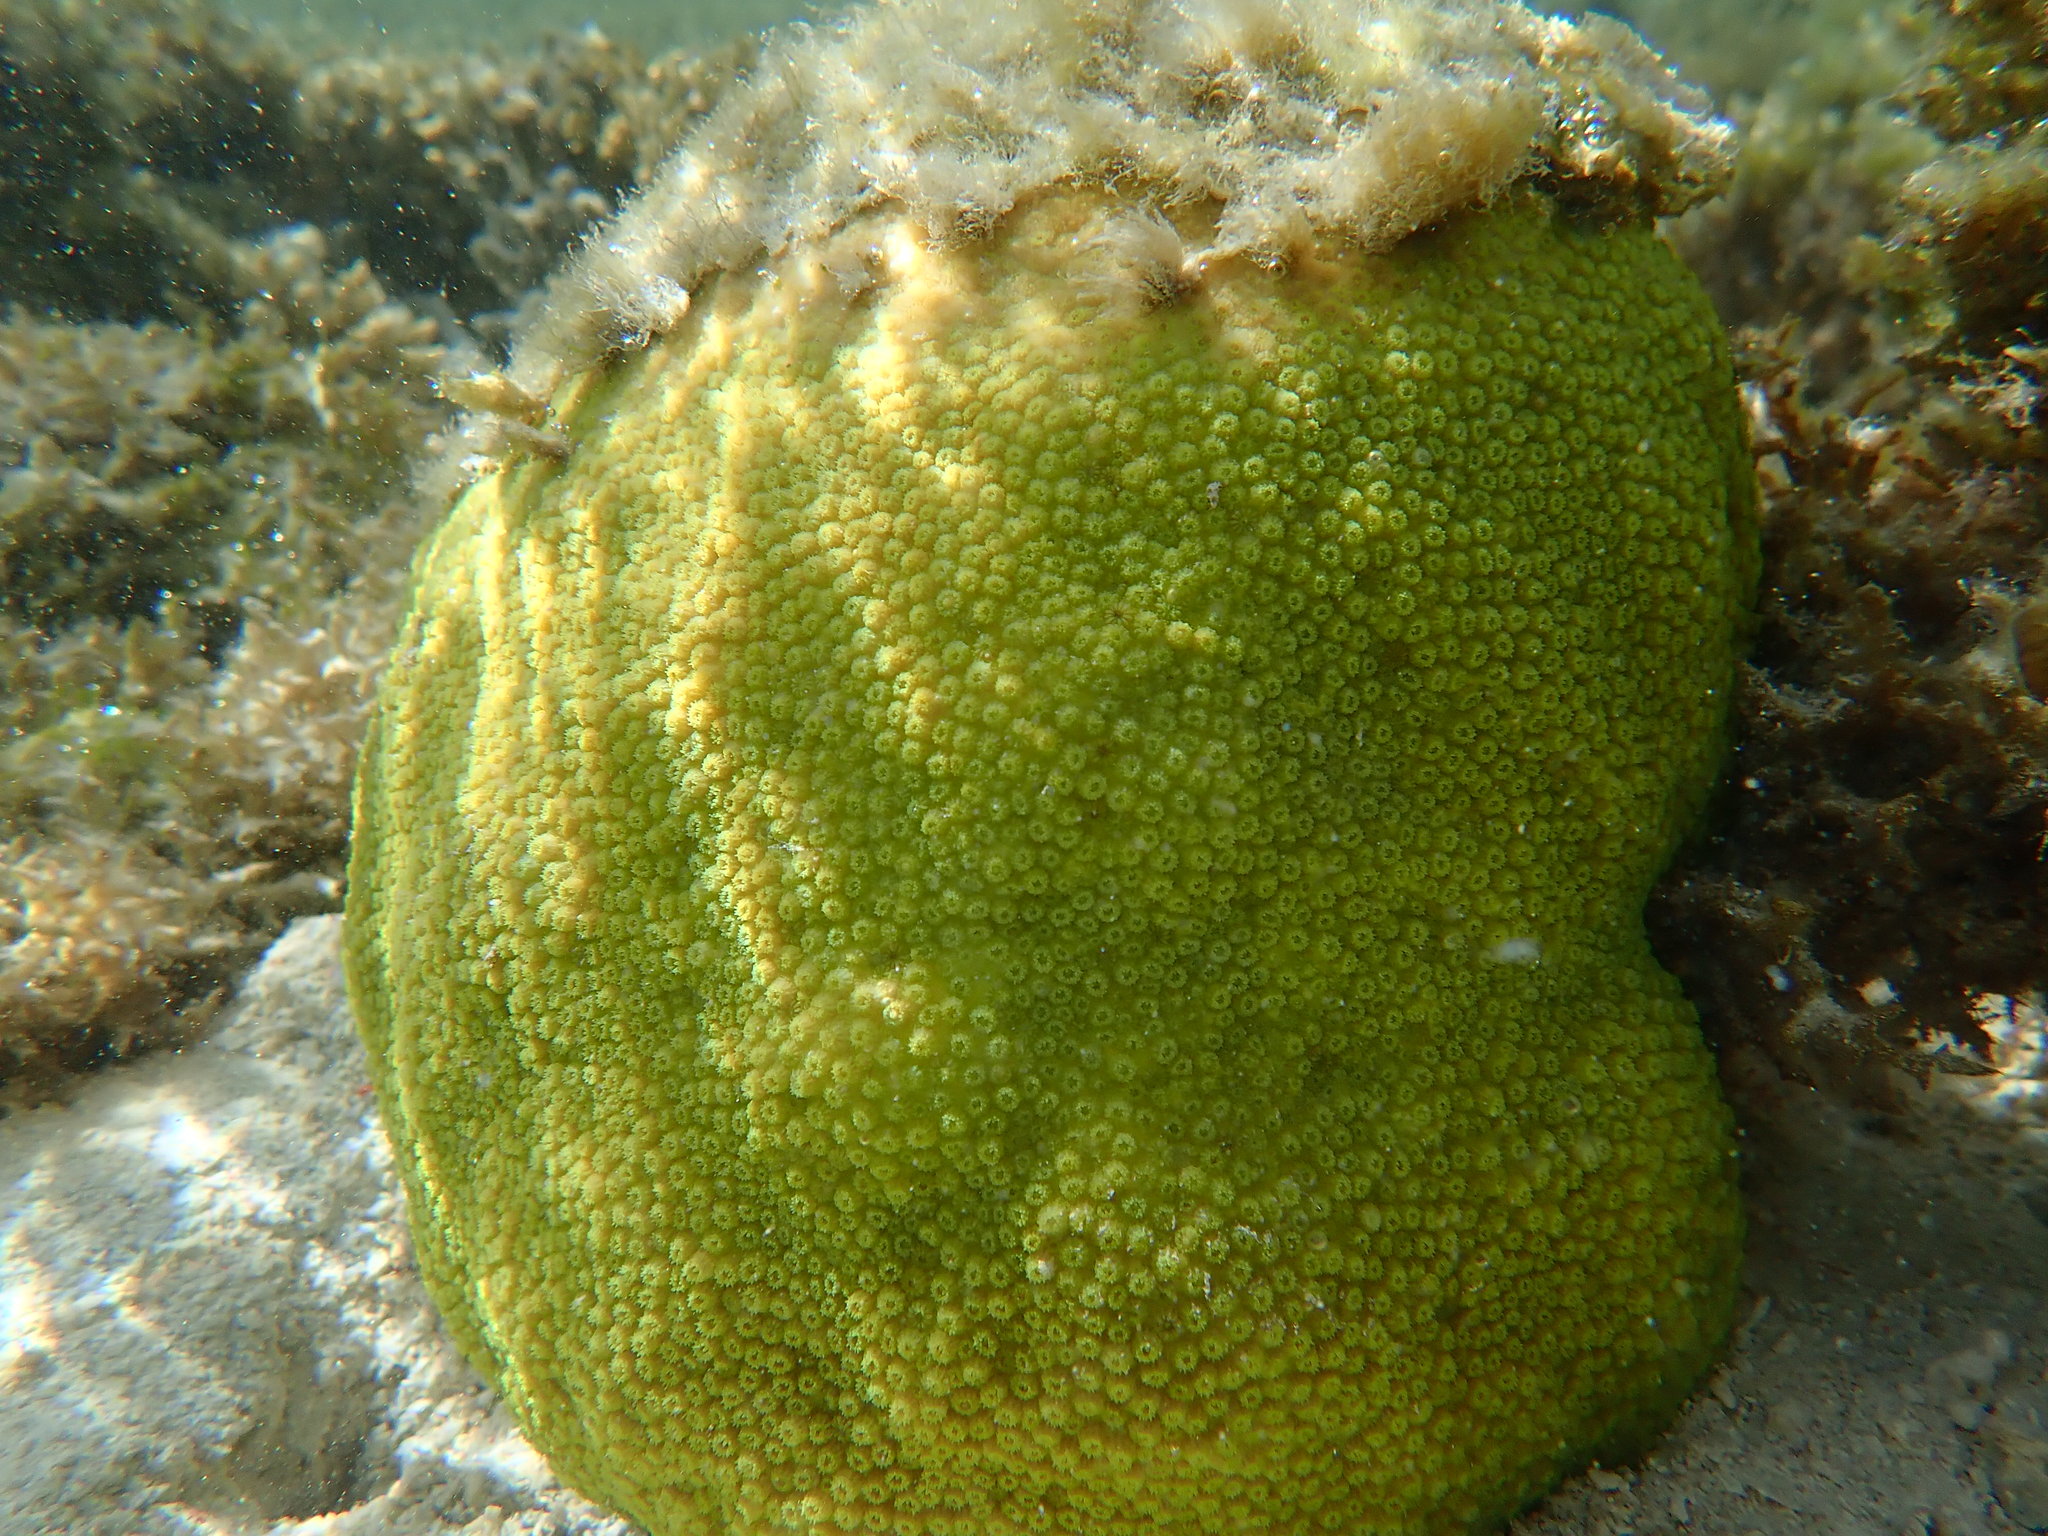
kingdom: Animalia
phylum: Cnidaria
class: Anthozoa
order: Scleractinia
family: Merulinidae
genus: Cyphastrea
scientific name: Cyphastrea chalcidicum
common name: Lesser knob coral
